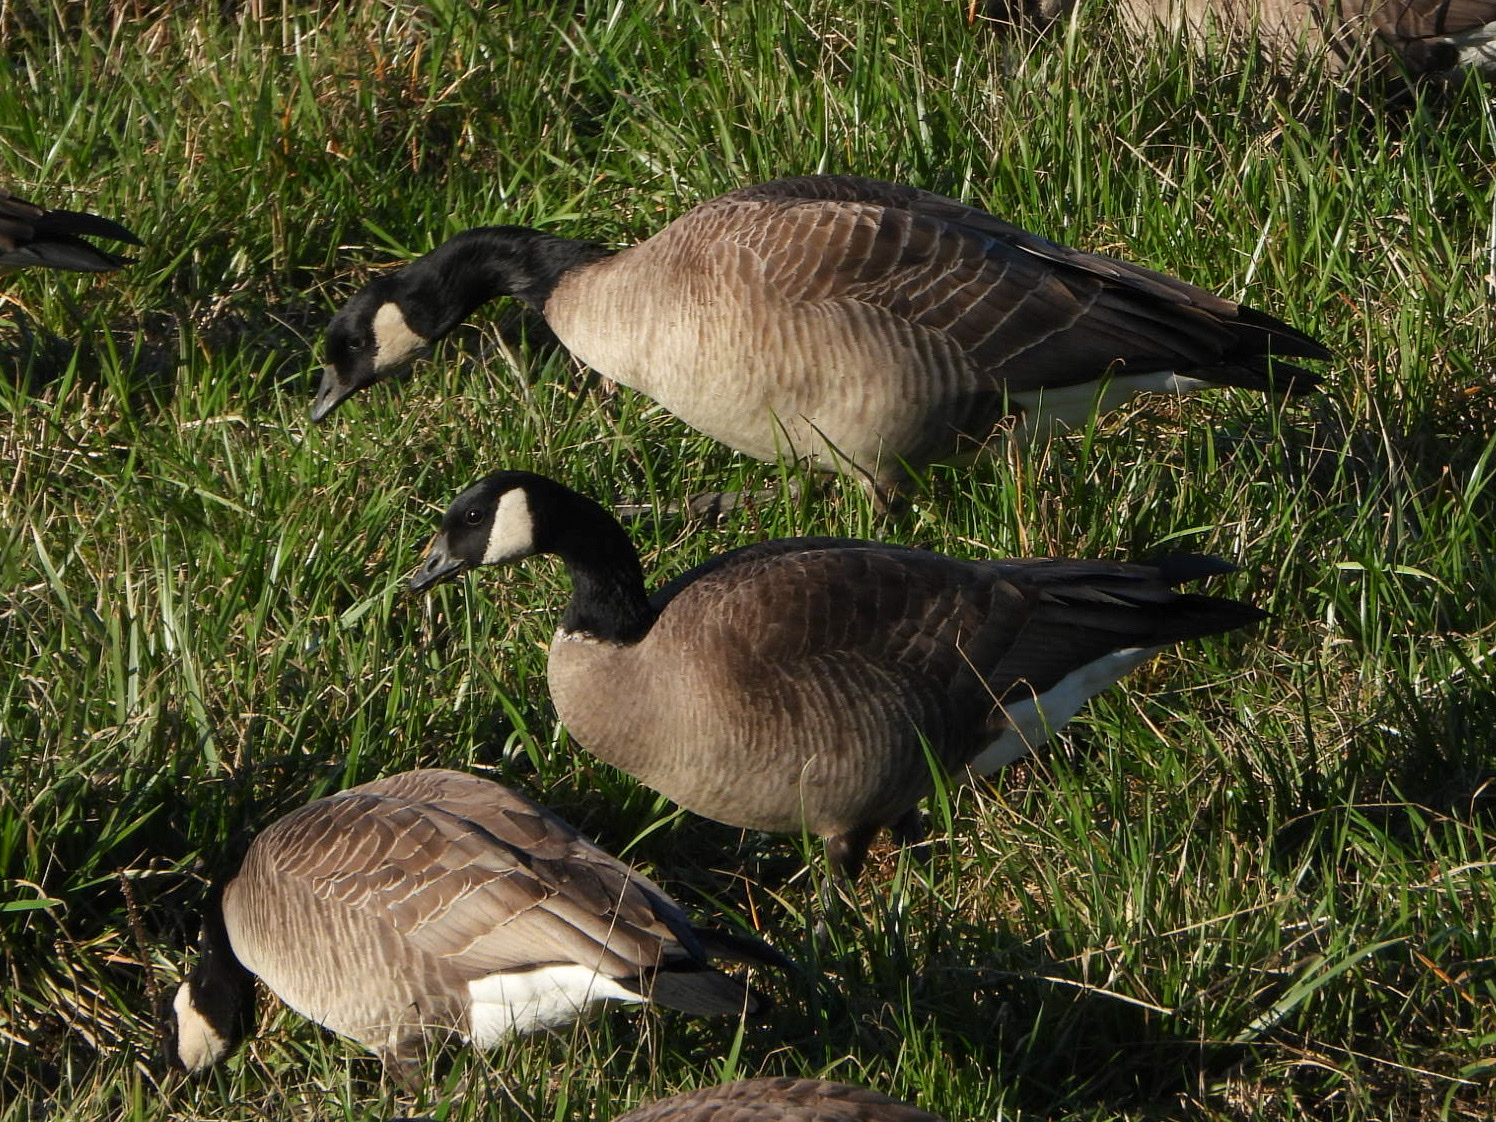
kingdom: Animalia
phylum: Chordata
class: Aves
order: Anseriformes
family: Anatidae
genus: Branta
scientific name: Branta hutchinsii
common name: Cackling goose
